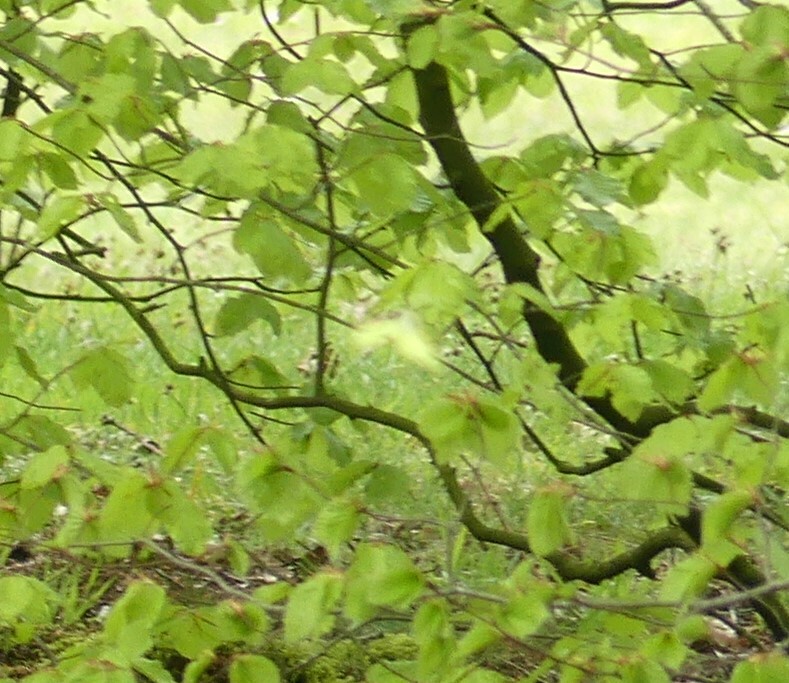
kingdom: Animalia
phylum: Arthropoda
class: Insecta
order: Lepidoptera
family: Pieridae
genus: Gonepteryx
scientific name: Gonepteryx rhamni
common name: Brimstone
